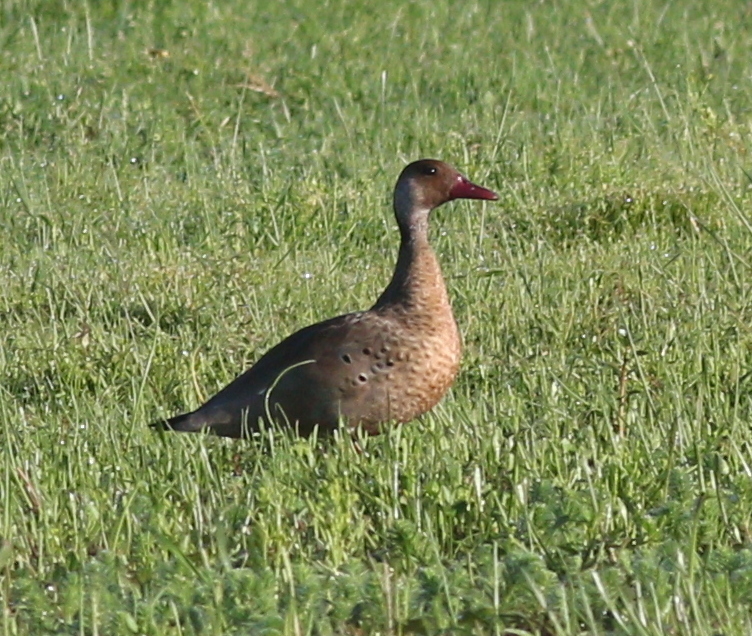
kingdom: Animalia
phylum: Chordata
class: Aves
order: Anseriformes
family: Anatidae
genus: Amazonetta
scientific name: Amazonetta brasiliensis
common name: Brazilian teal
